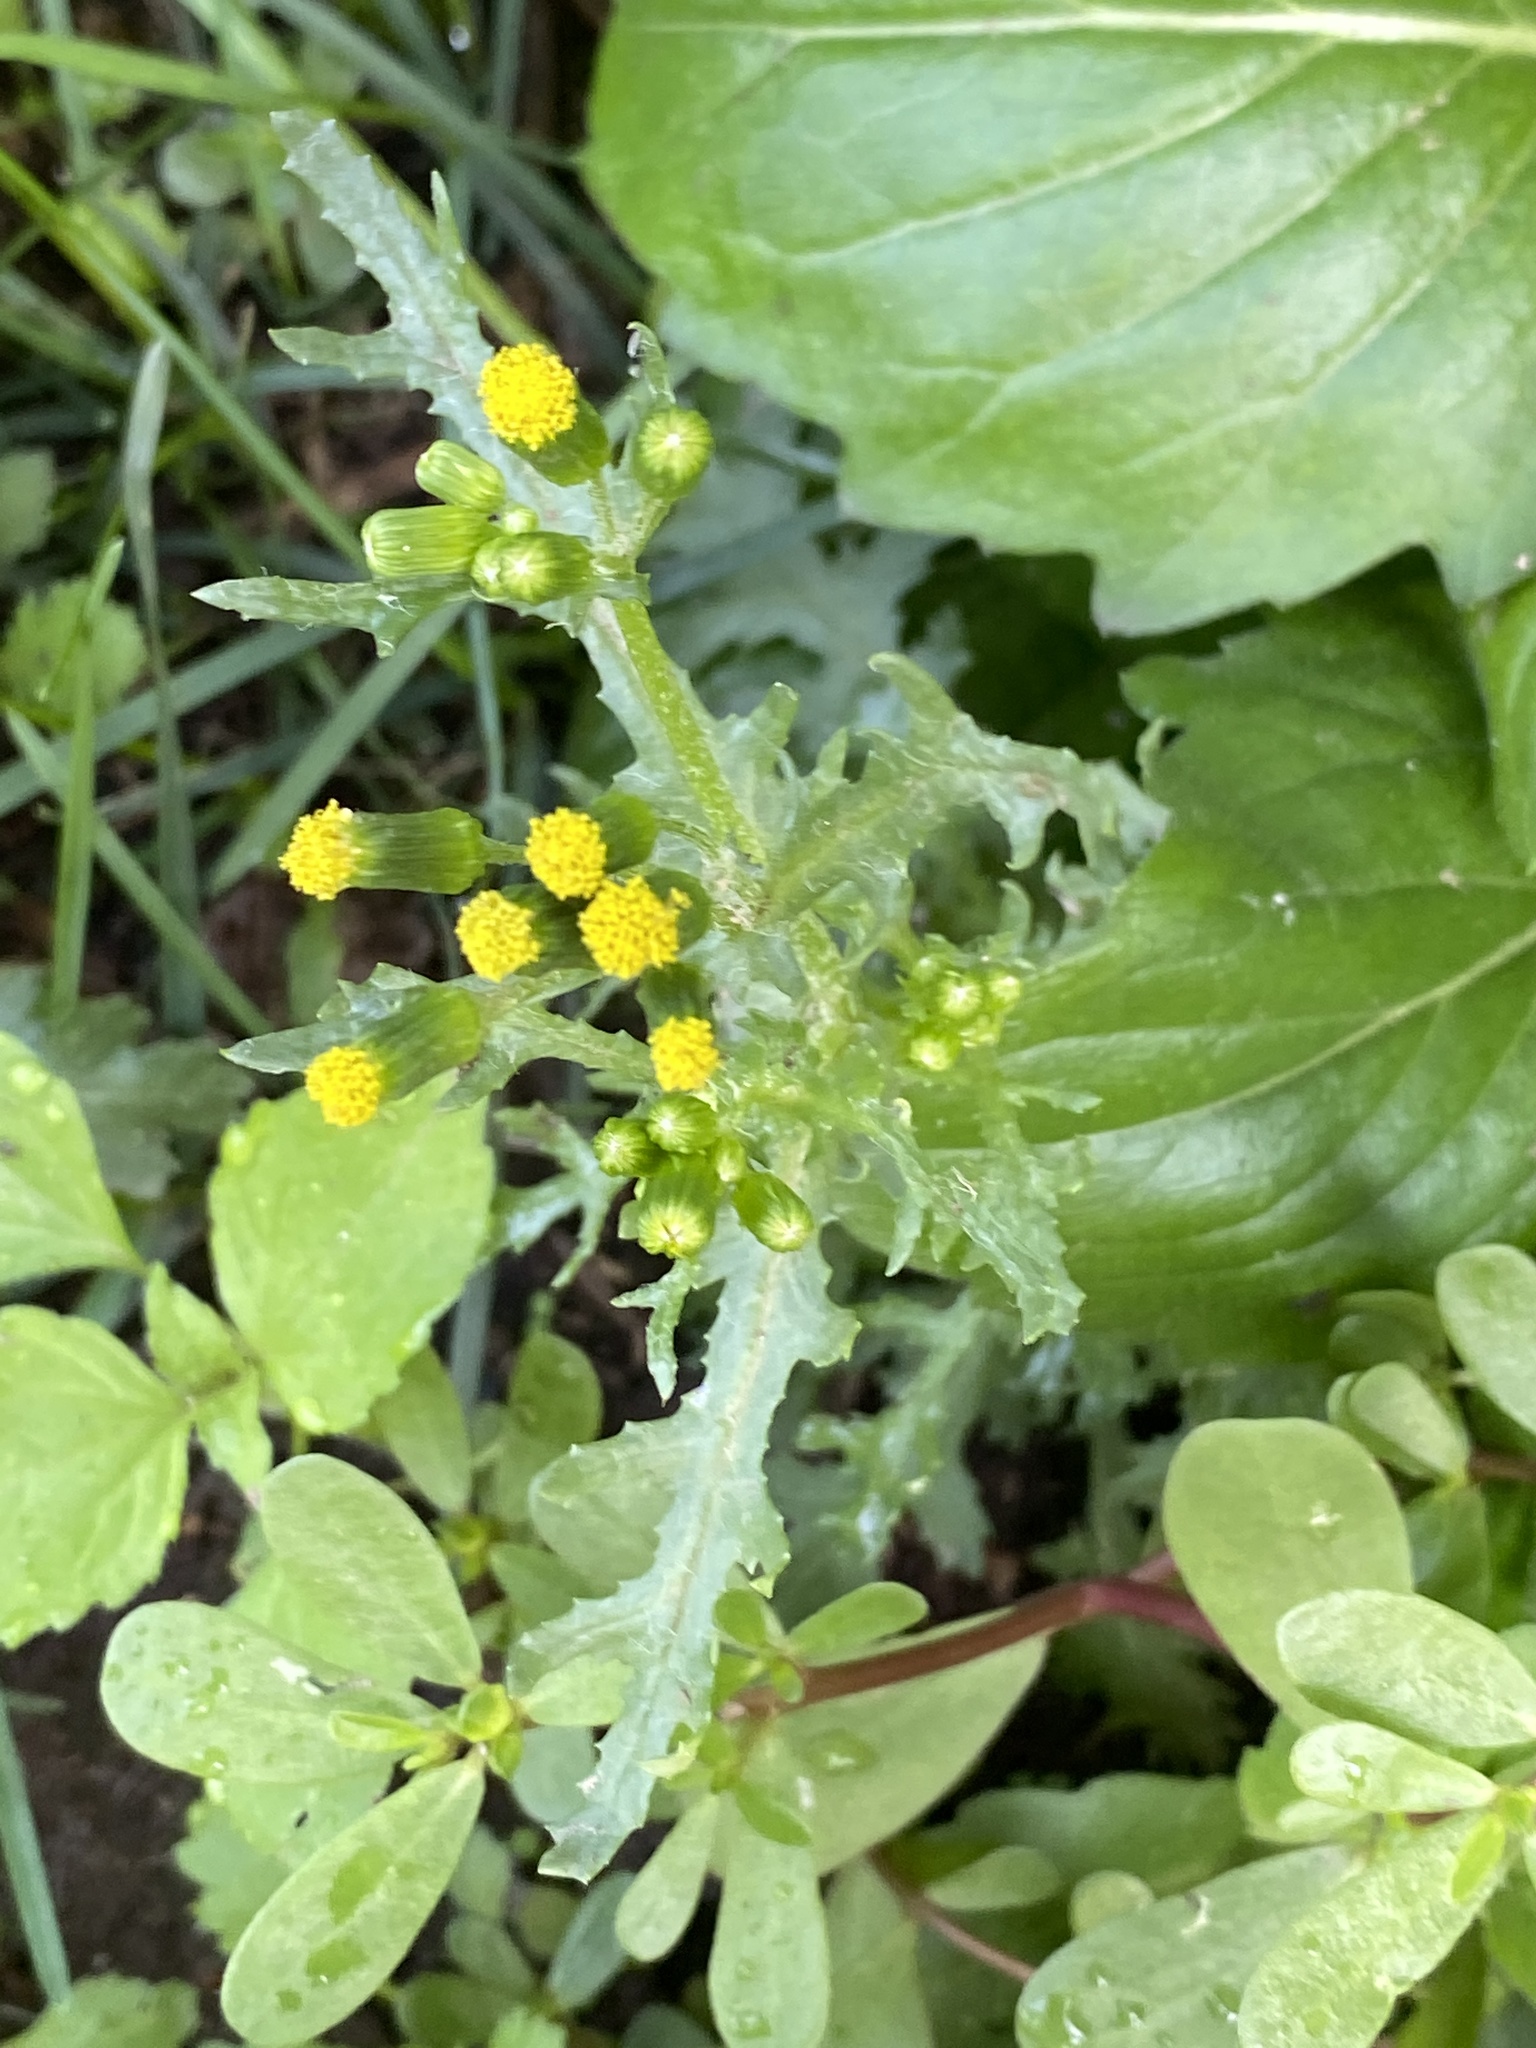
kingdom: Plantae
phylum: Tracheophyta
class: Magnoliopsida
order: Asterales
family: Asteraceae
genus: Senecio
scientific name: Senecio vulgaris
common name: Old-man-in-the-spring
